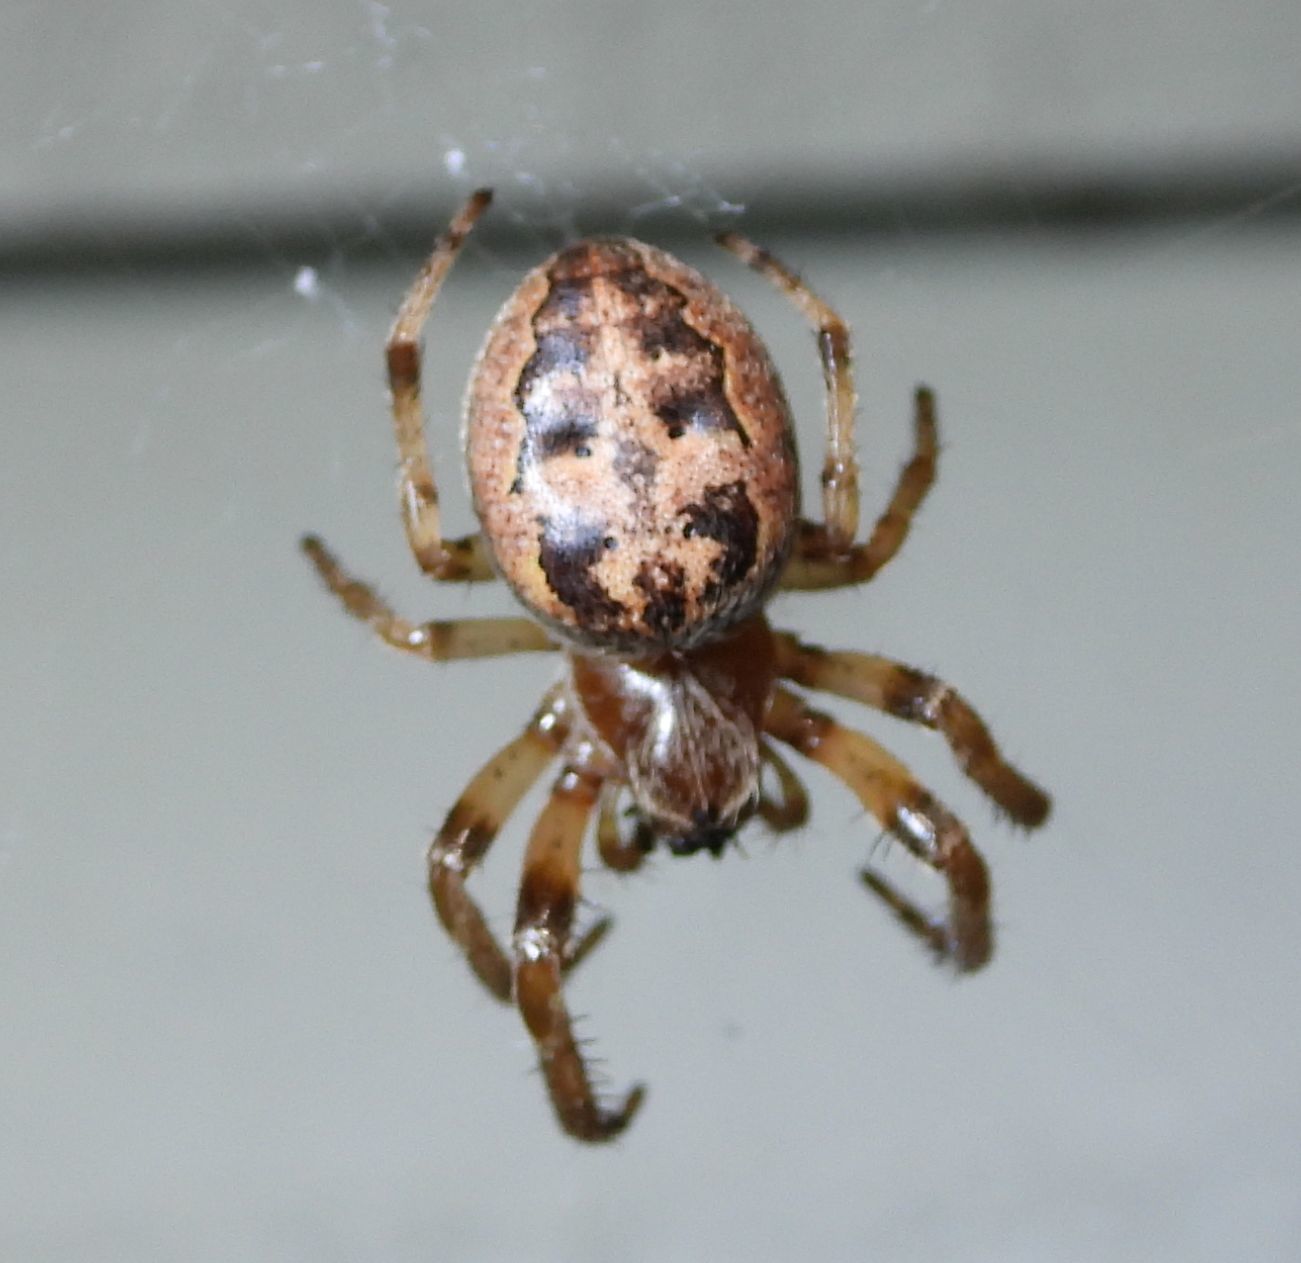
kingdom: Animalia
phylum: Arthropoda
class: Arachnida
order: Araneae
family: Araneidae
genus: Larinioides
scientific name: Larinioides cornutus
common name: Furrow orbweaver
